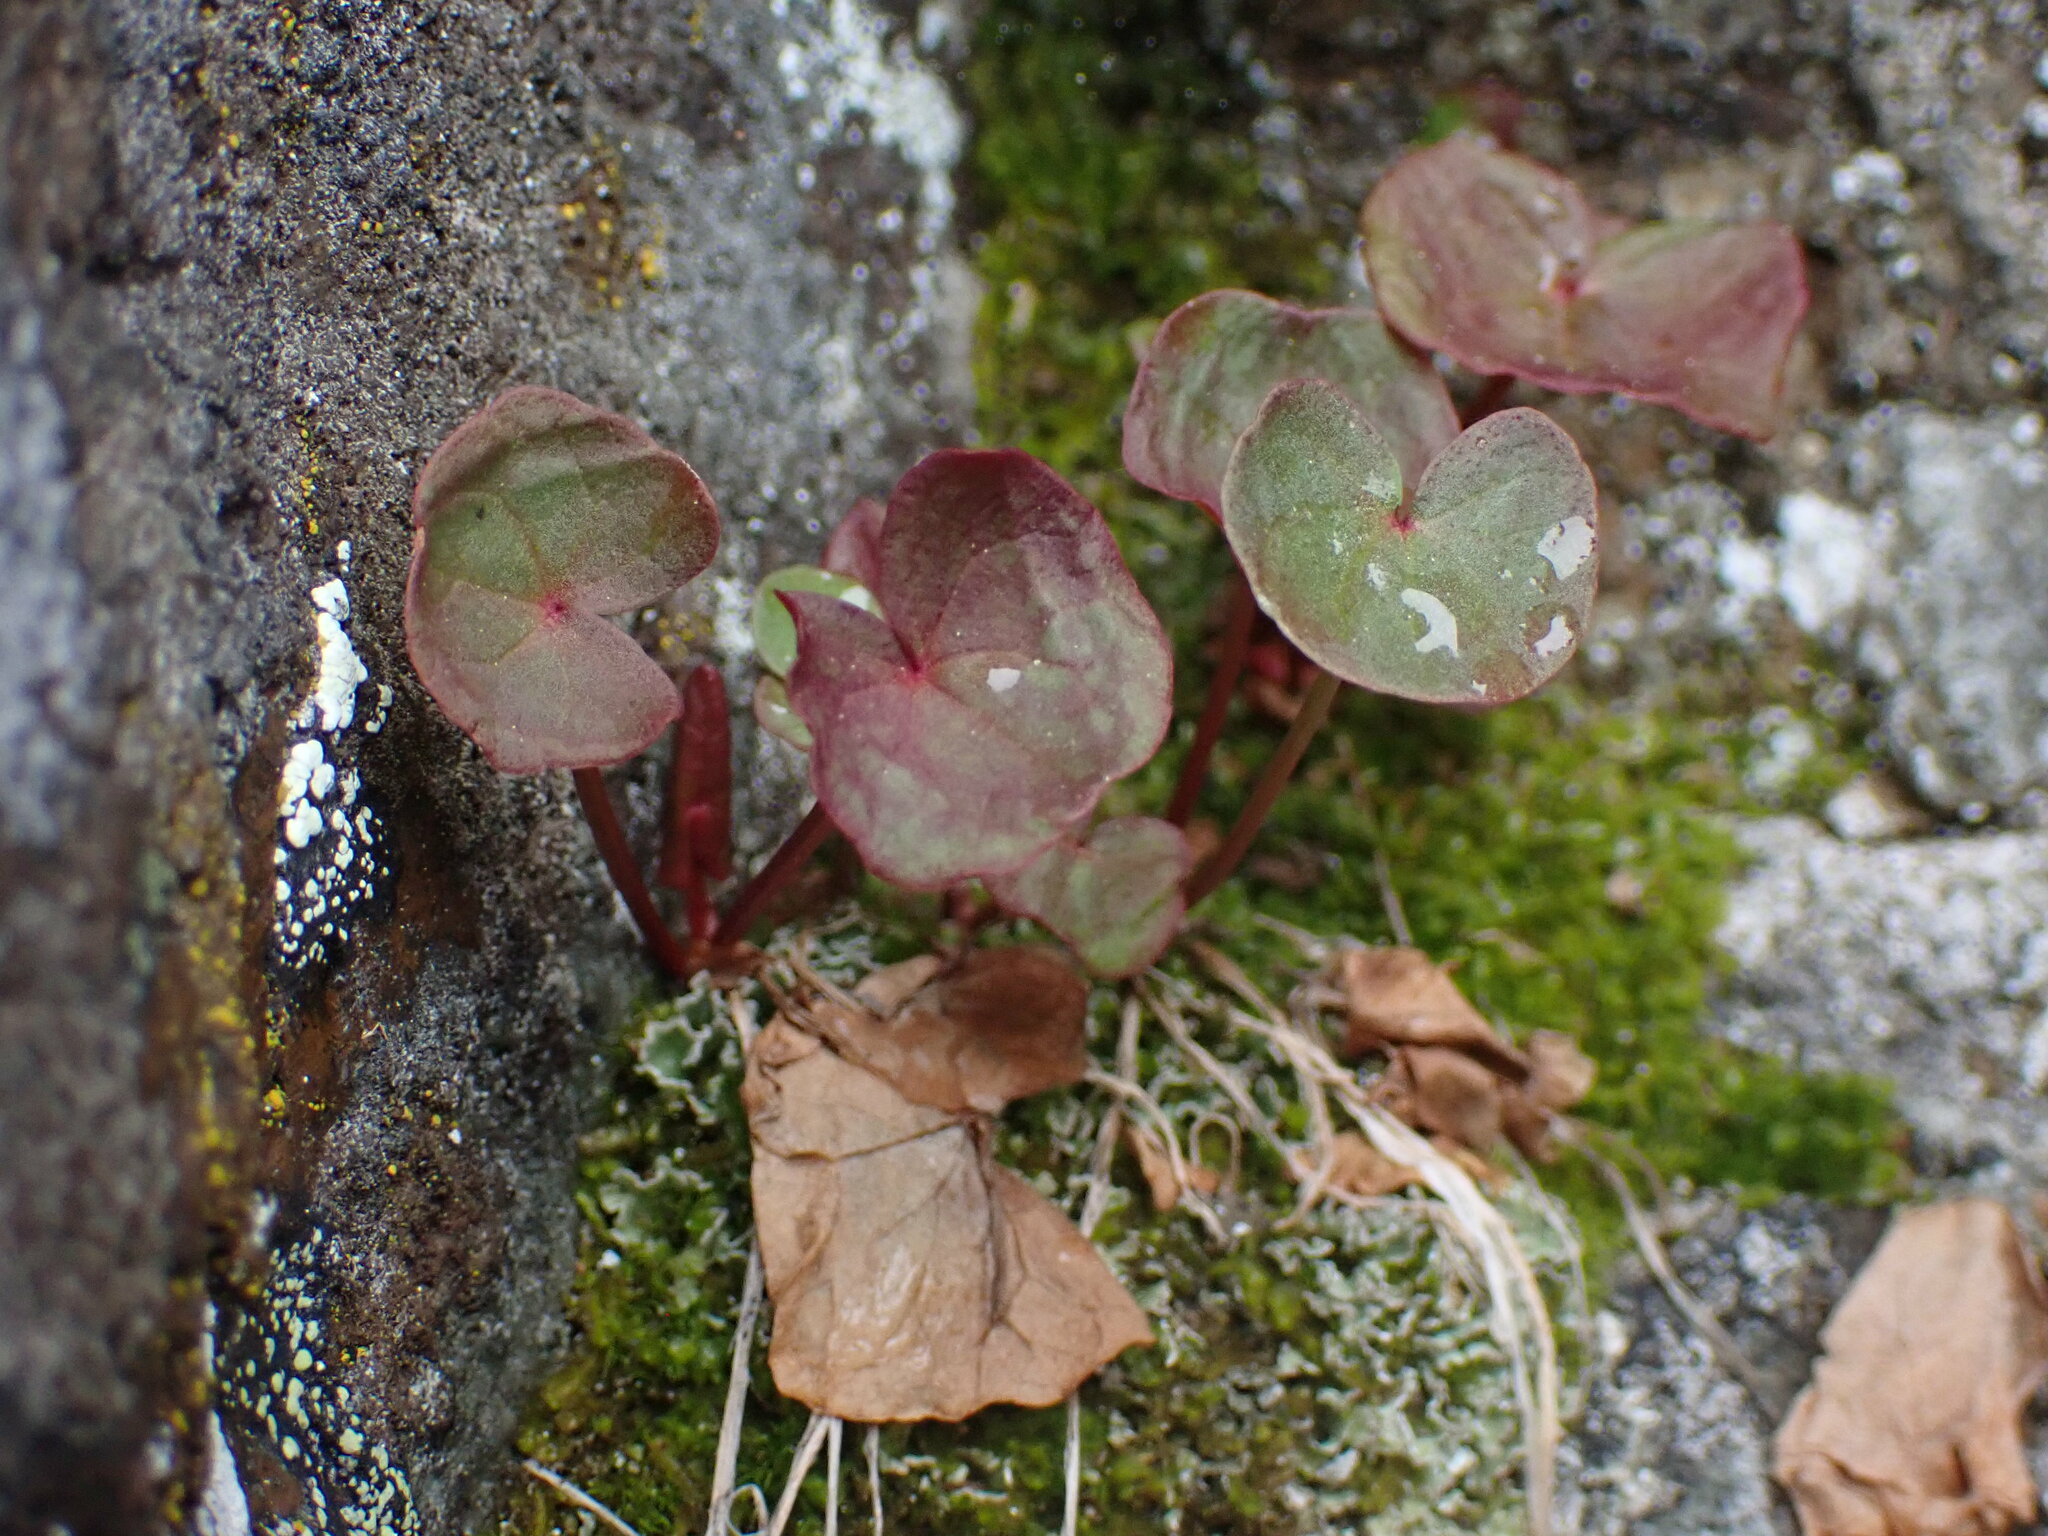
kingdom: Plantae
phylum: Tracheophyta
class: Magnoliopsida
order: Caryophyllales
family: Polygonaceae
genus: Oxyria
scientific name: Oxyria digyna
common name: Alpine mountain-sorrel
